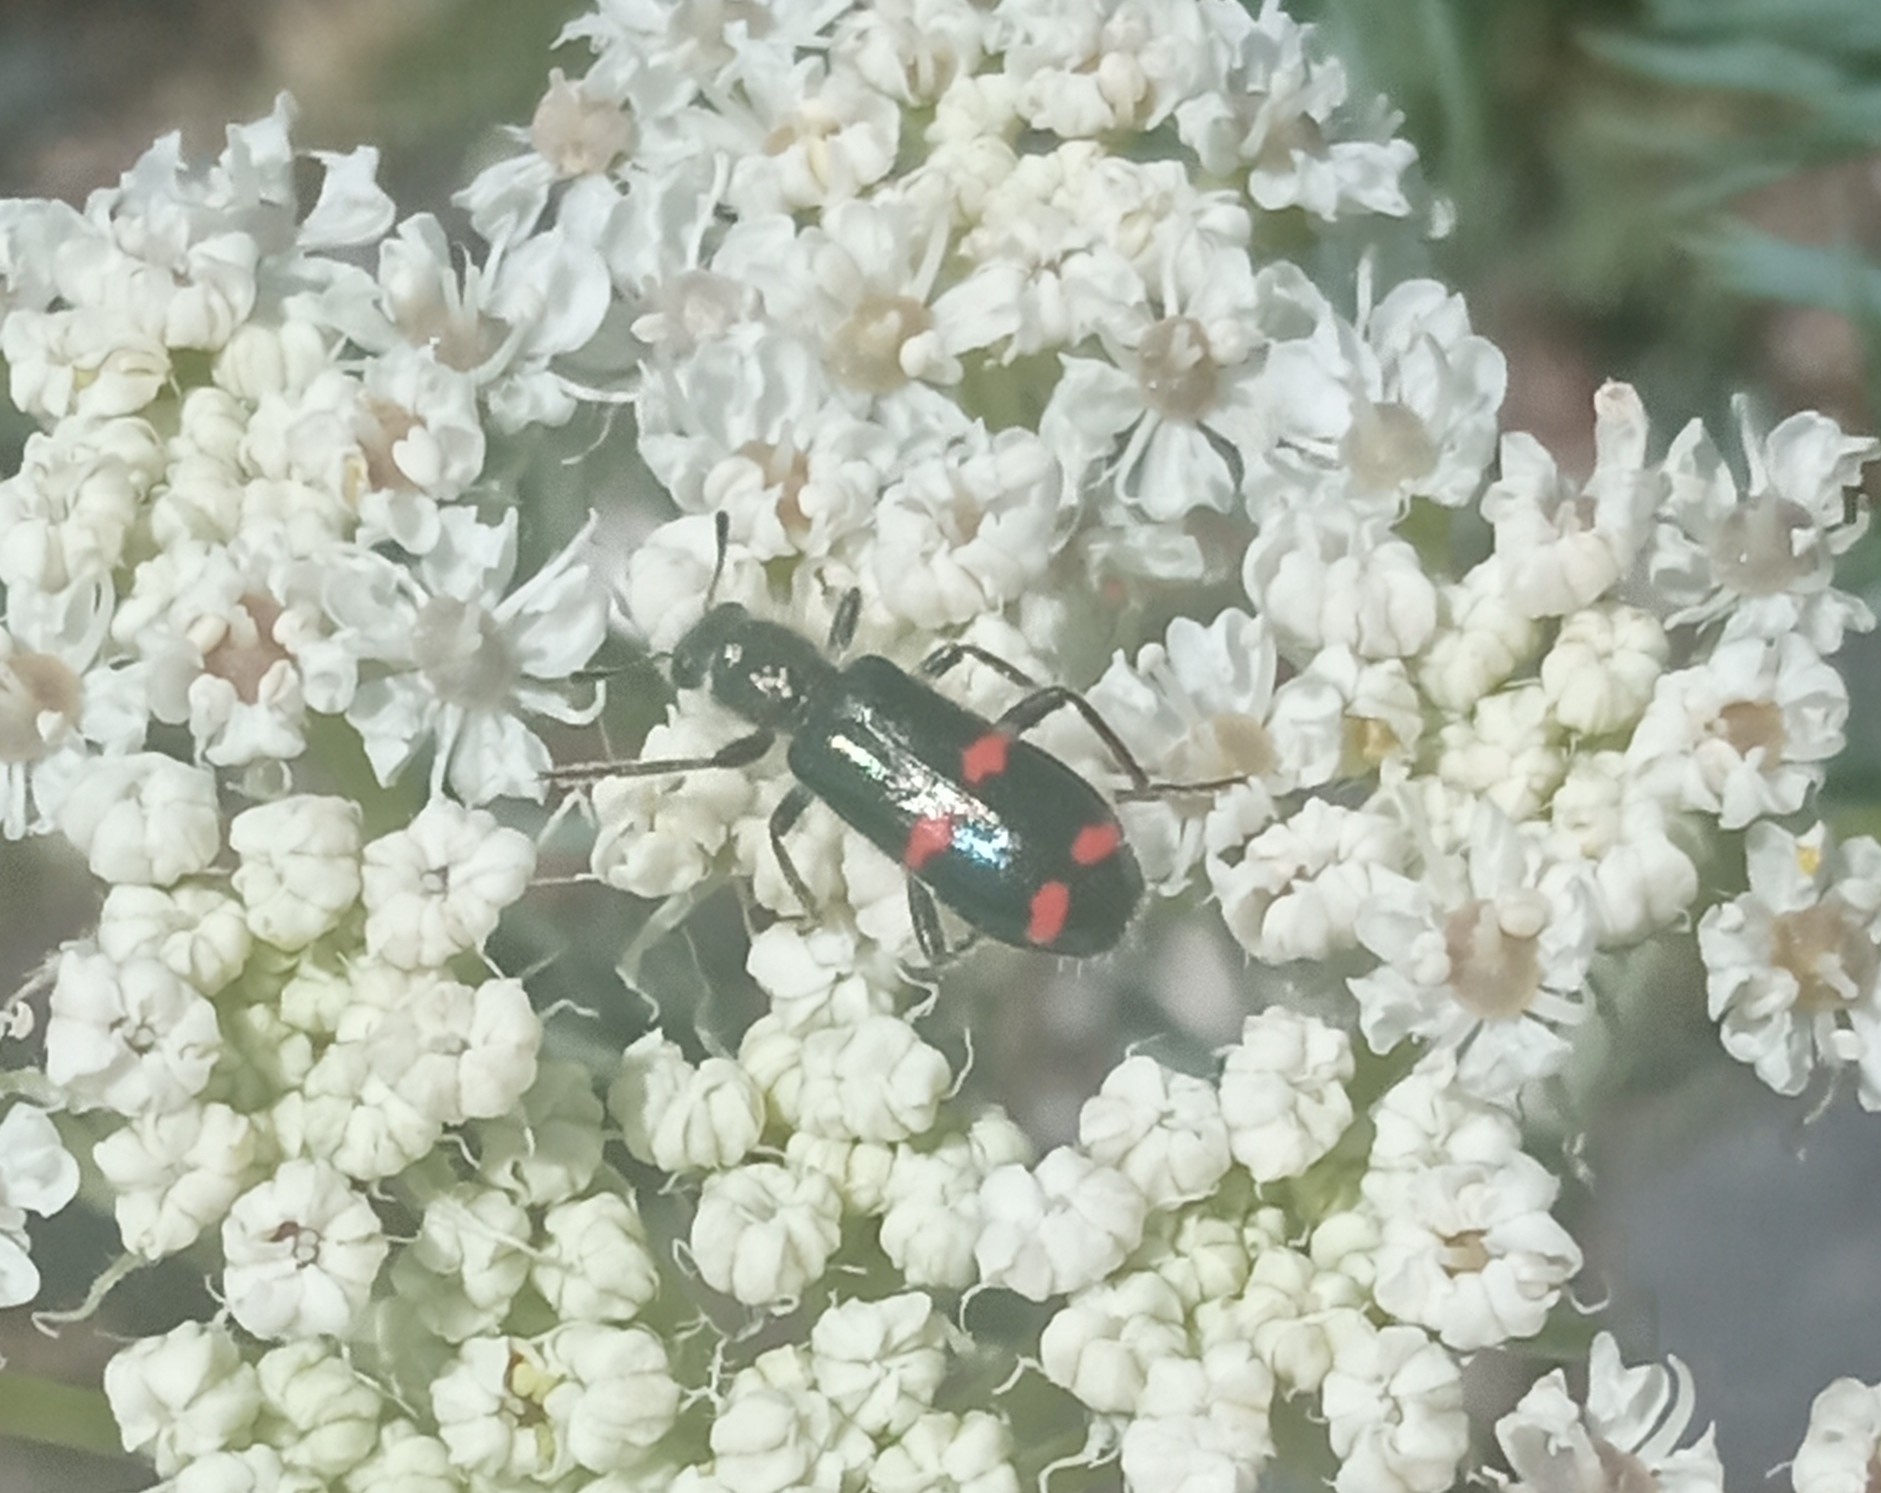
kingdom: Animalia
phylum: Arthropoda
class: Insecta
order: Coleoptera
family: Cleridae
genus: Trichodes
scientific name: Trichodes
